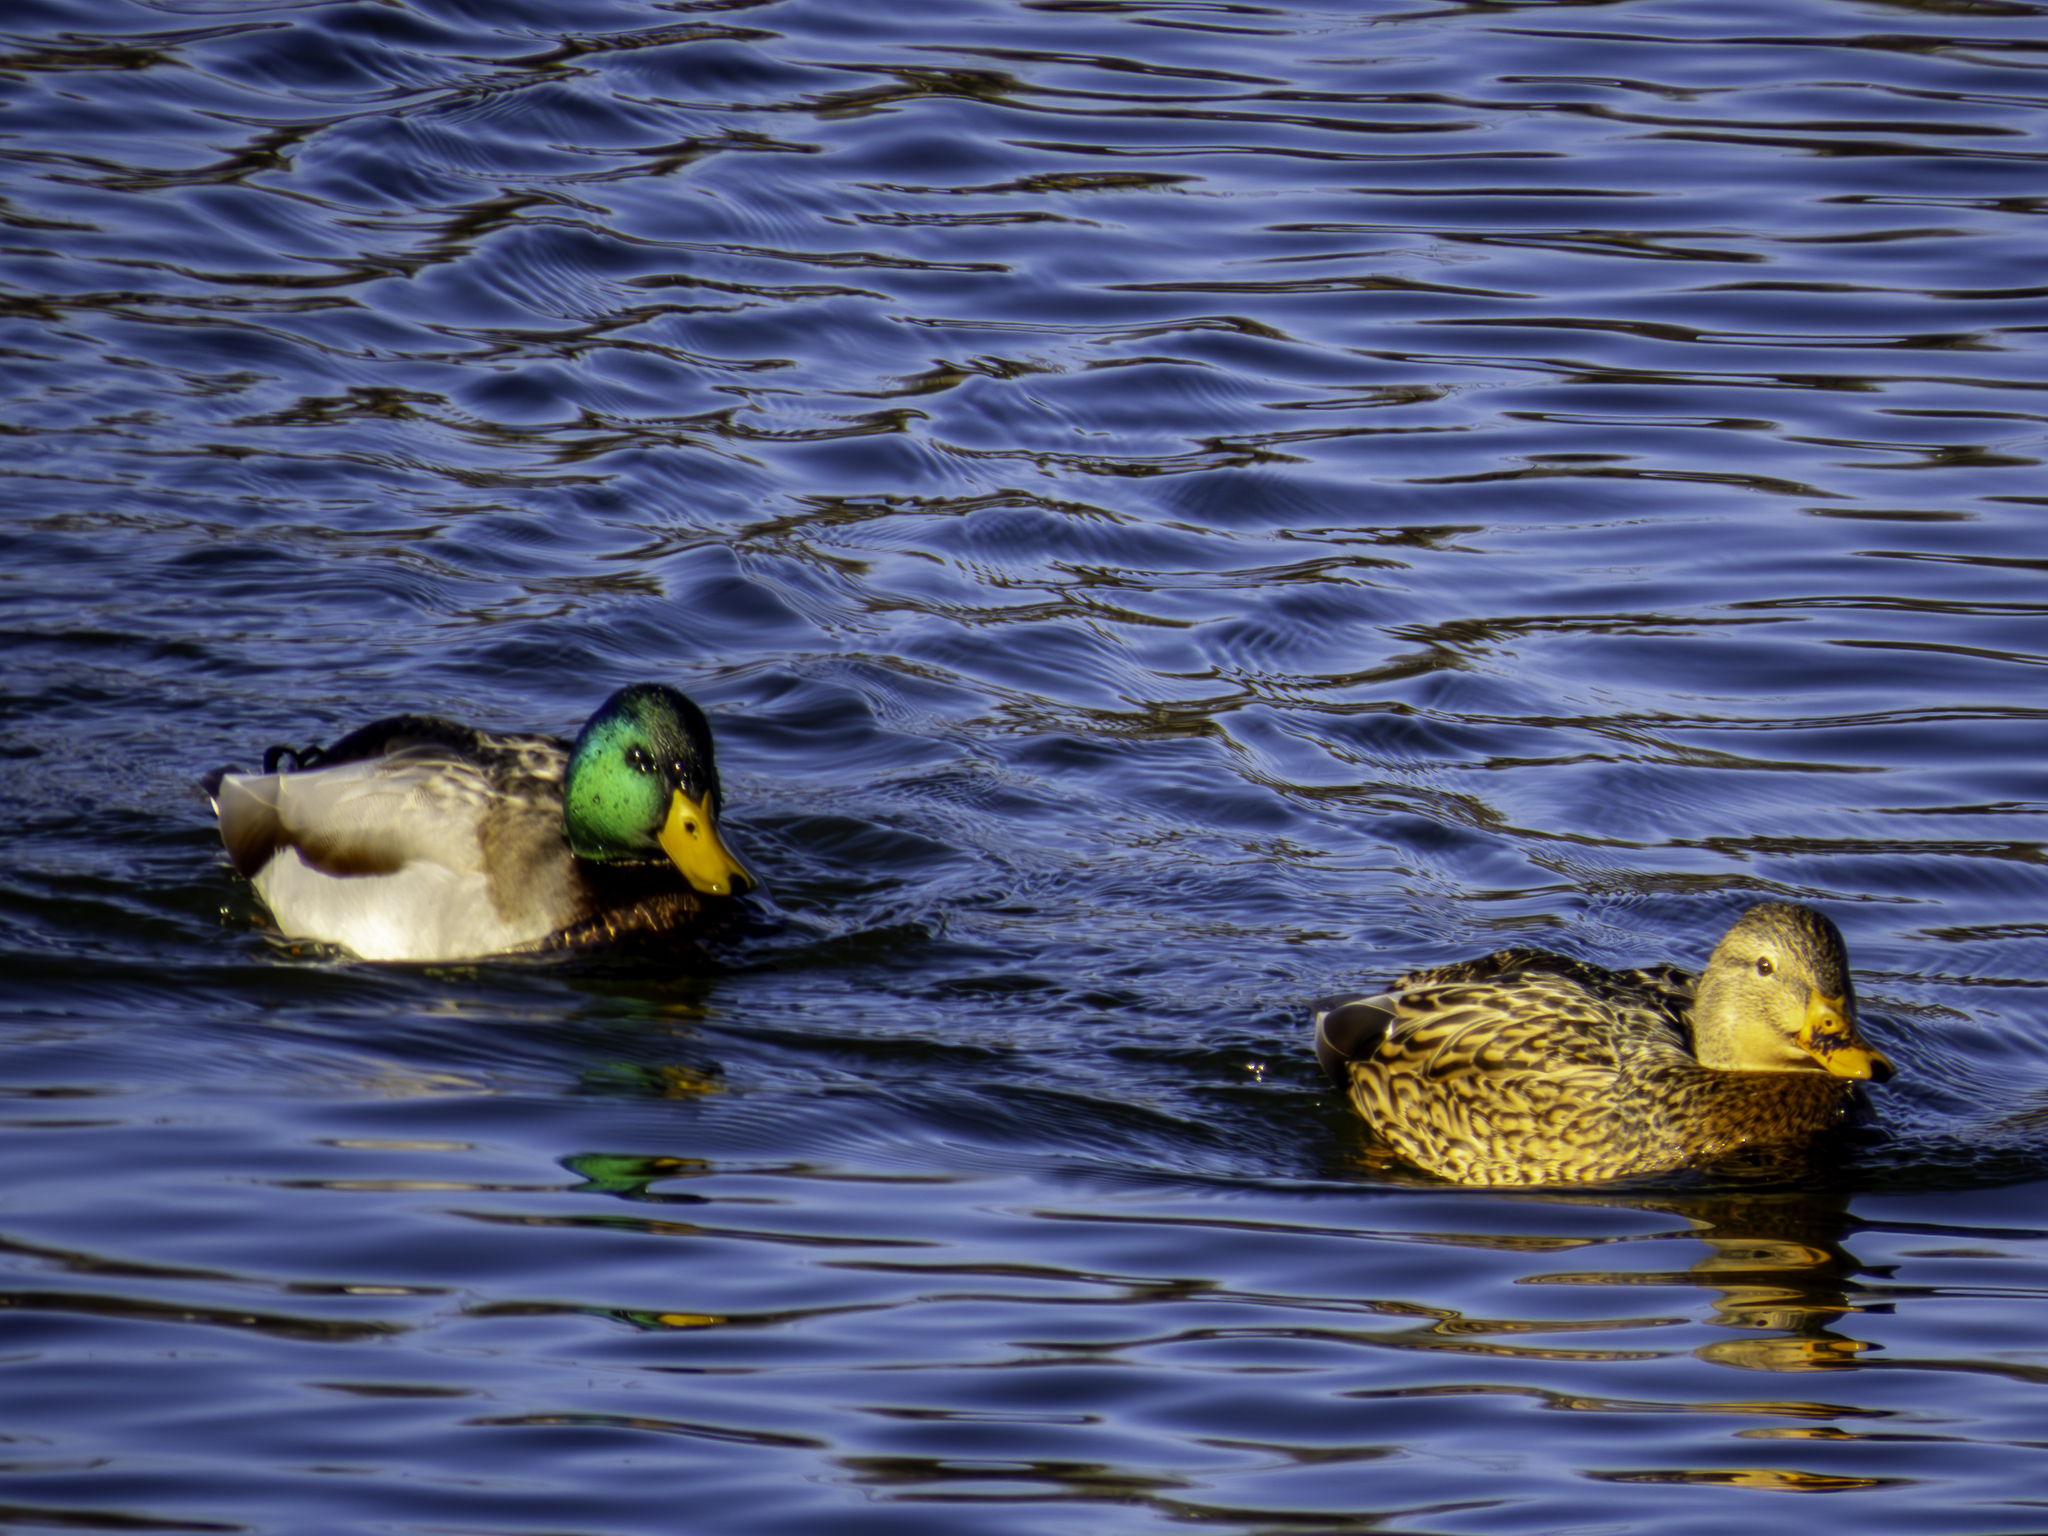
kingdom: Animalia
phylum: Chordata
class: Aves
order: Anseriformes
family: Anatidae
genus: Anas
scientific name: Anas platyrhynchos
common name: Mallard
